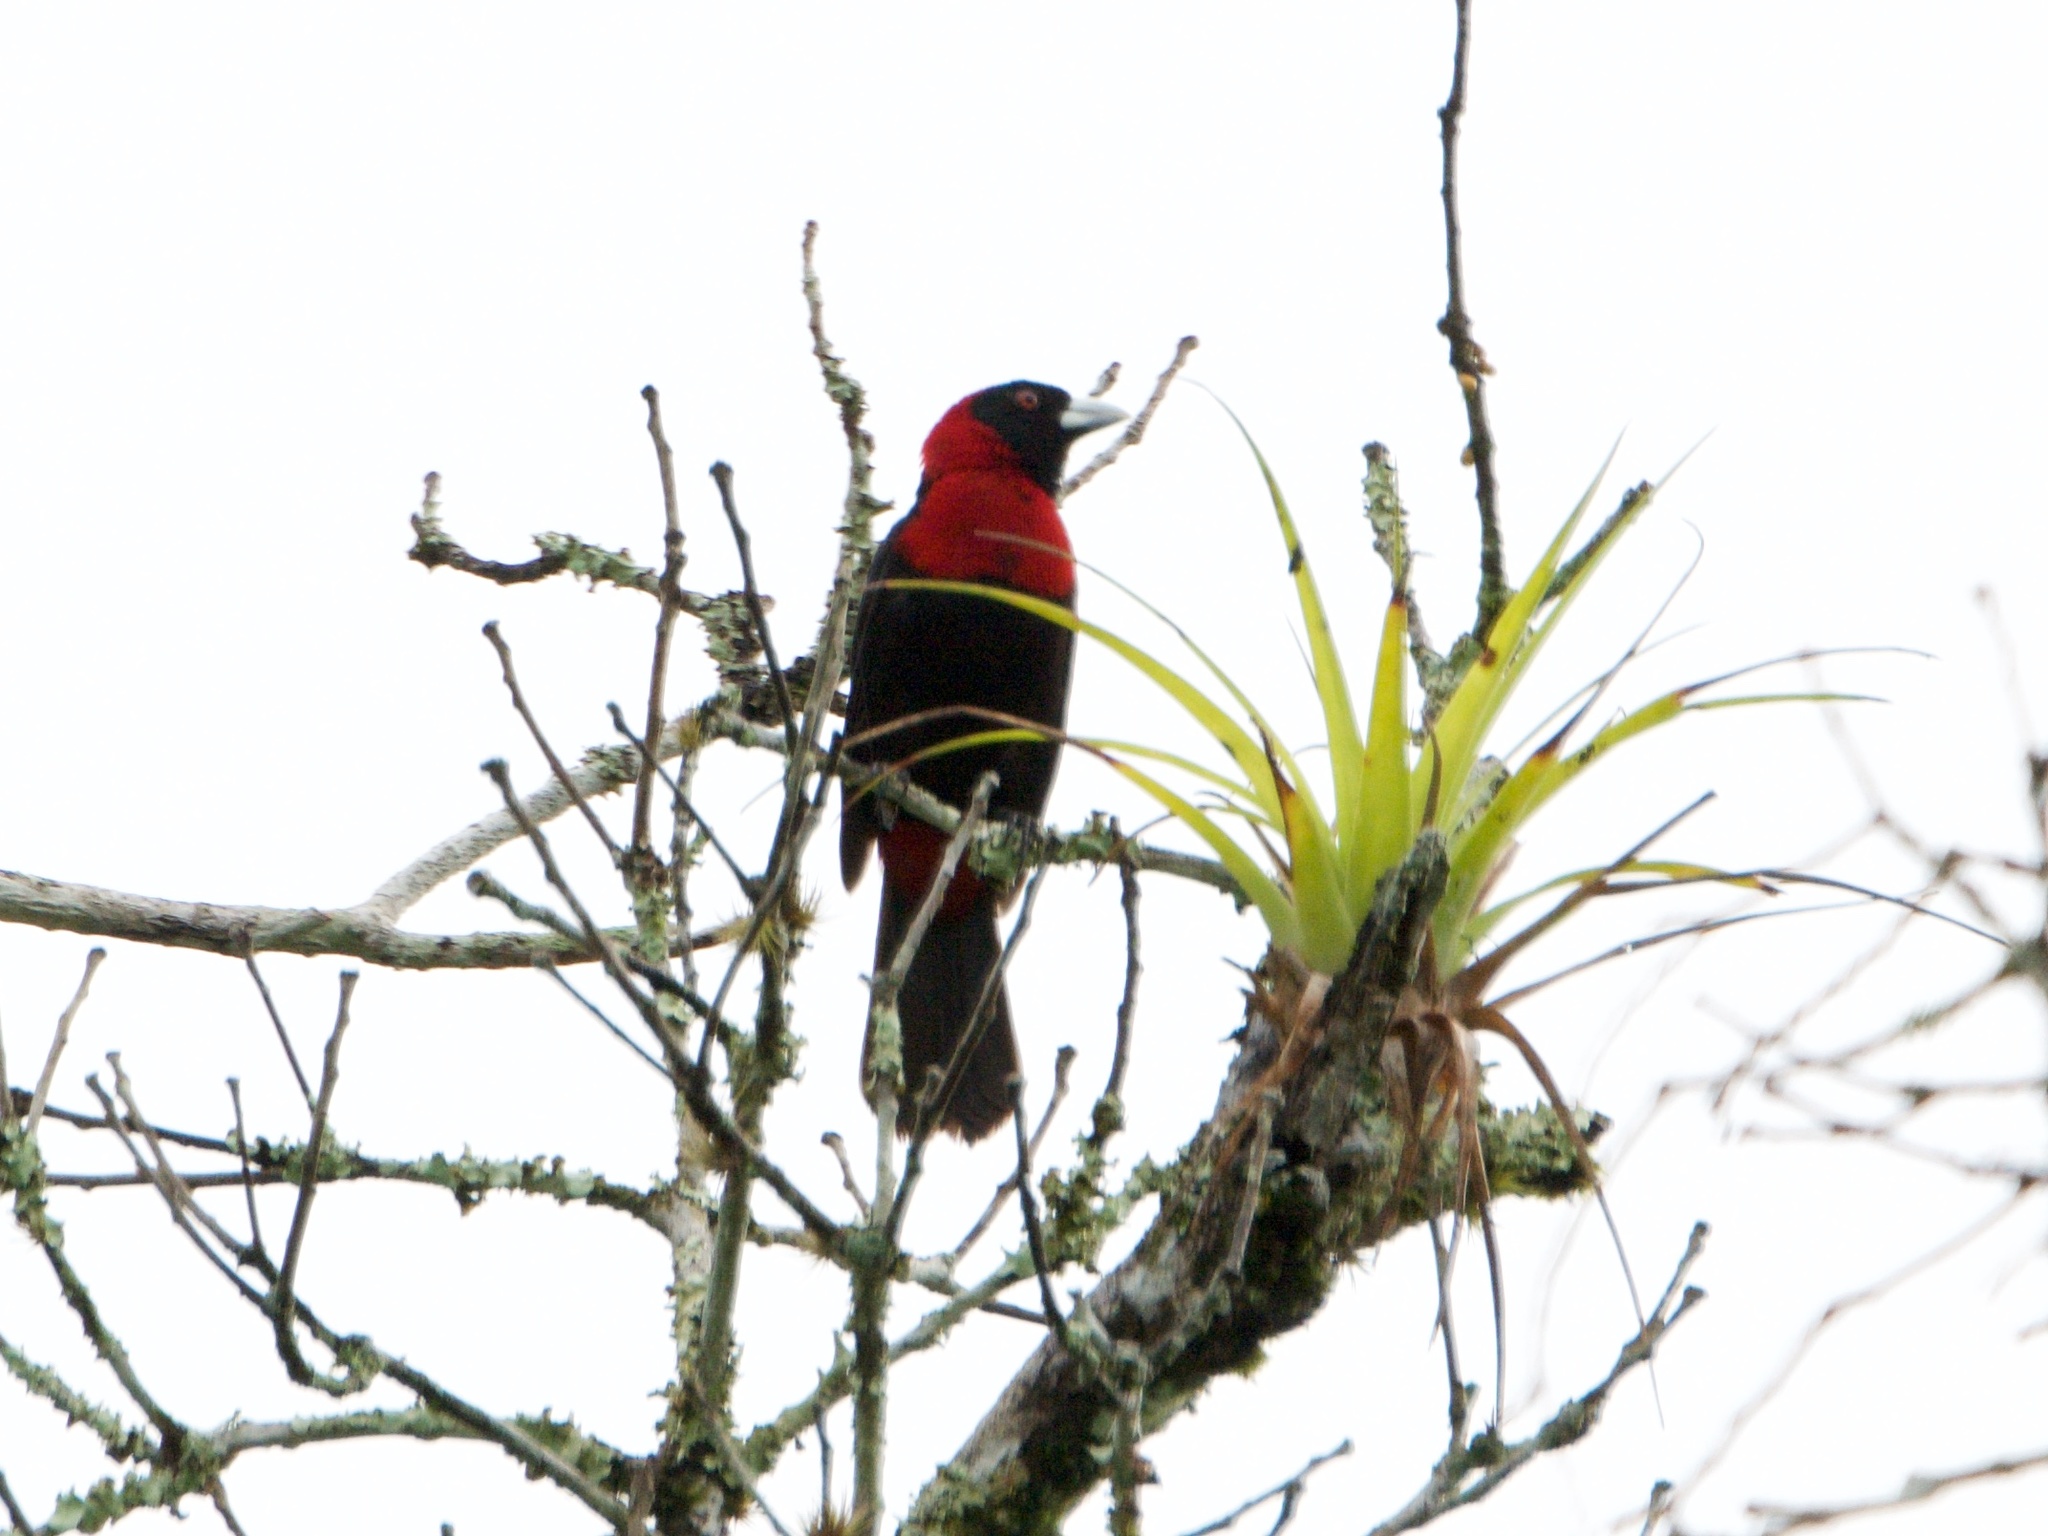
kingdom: Animalia
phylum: Chordata
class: Aves
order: Passeriformes
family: Thraupidae
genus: Ramphocelus
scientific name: Ramphocelus sanguinolentus
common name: Crimson-collared tanager
